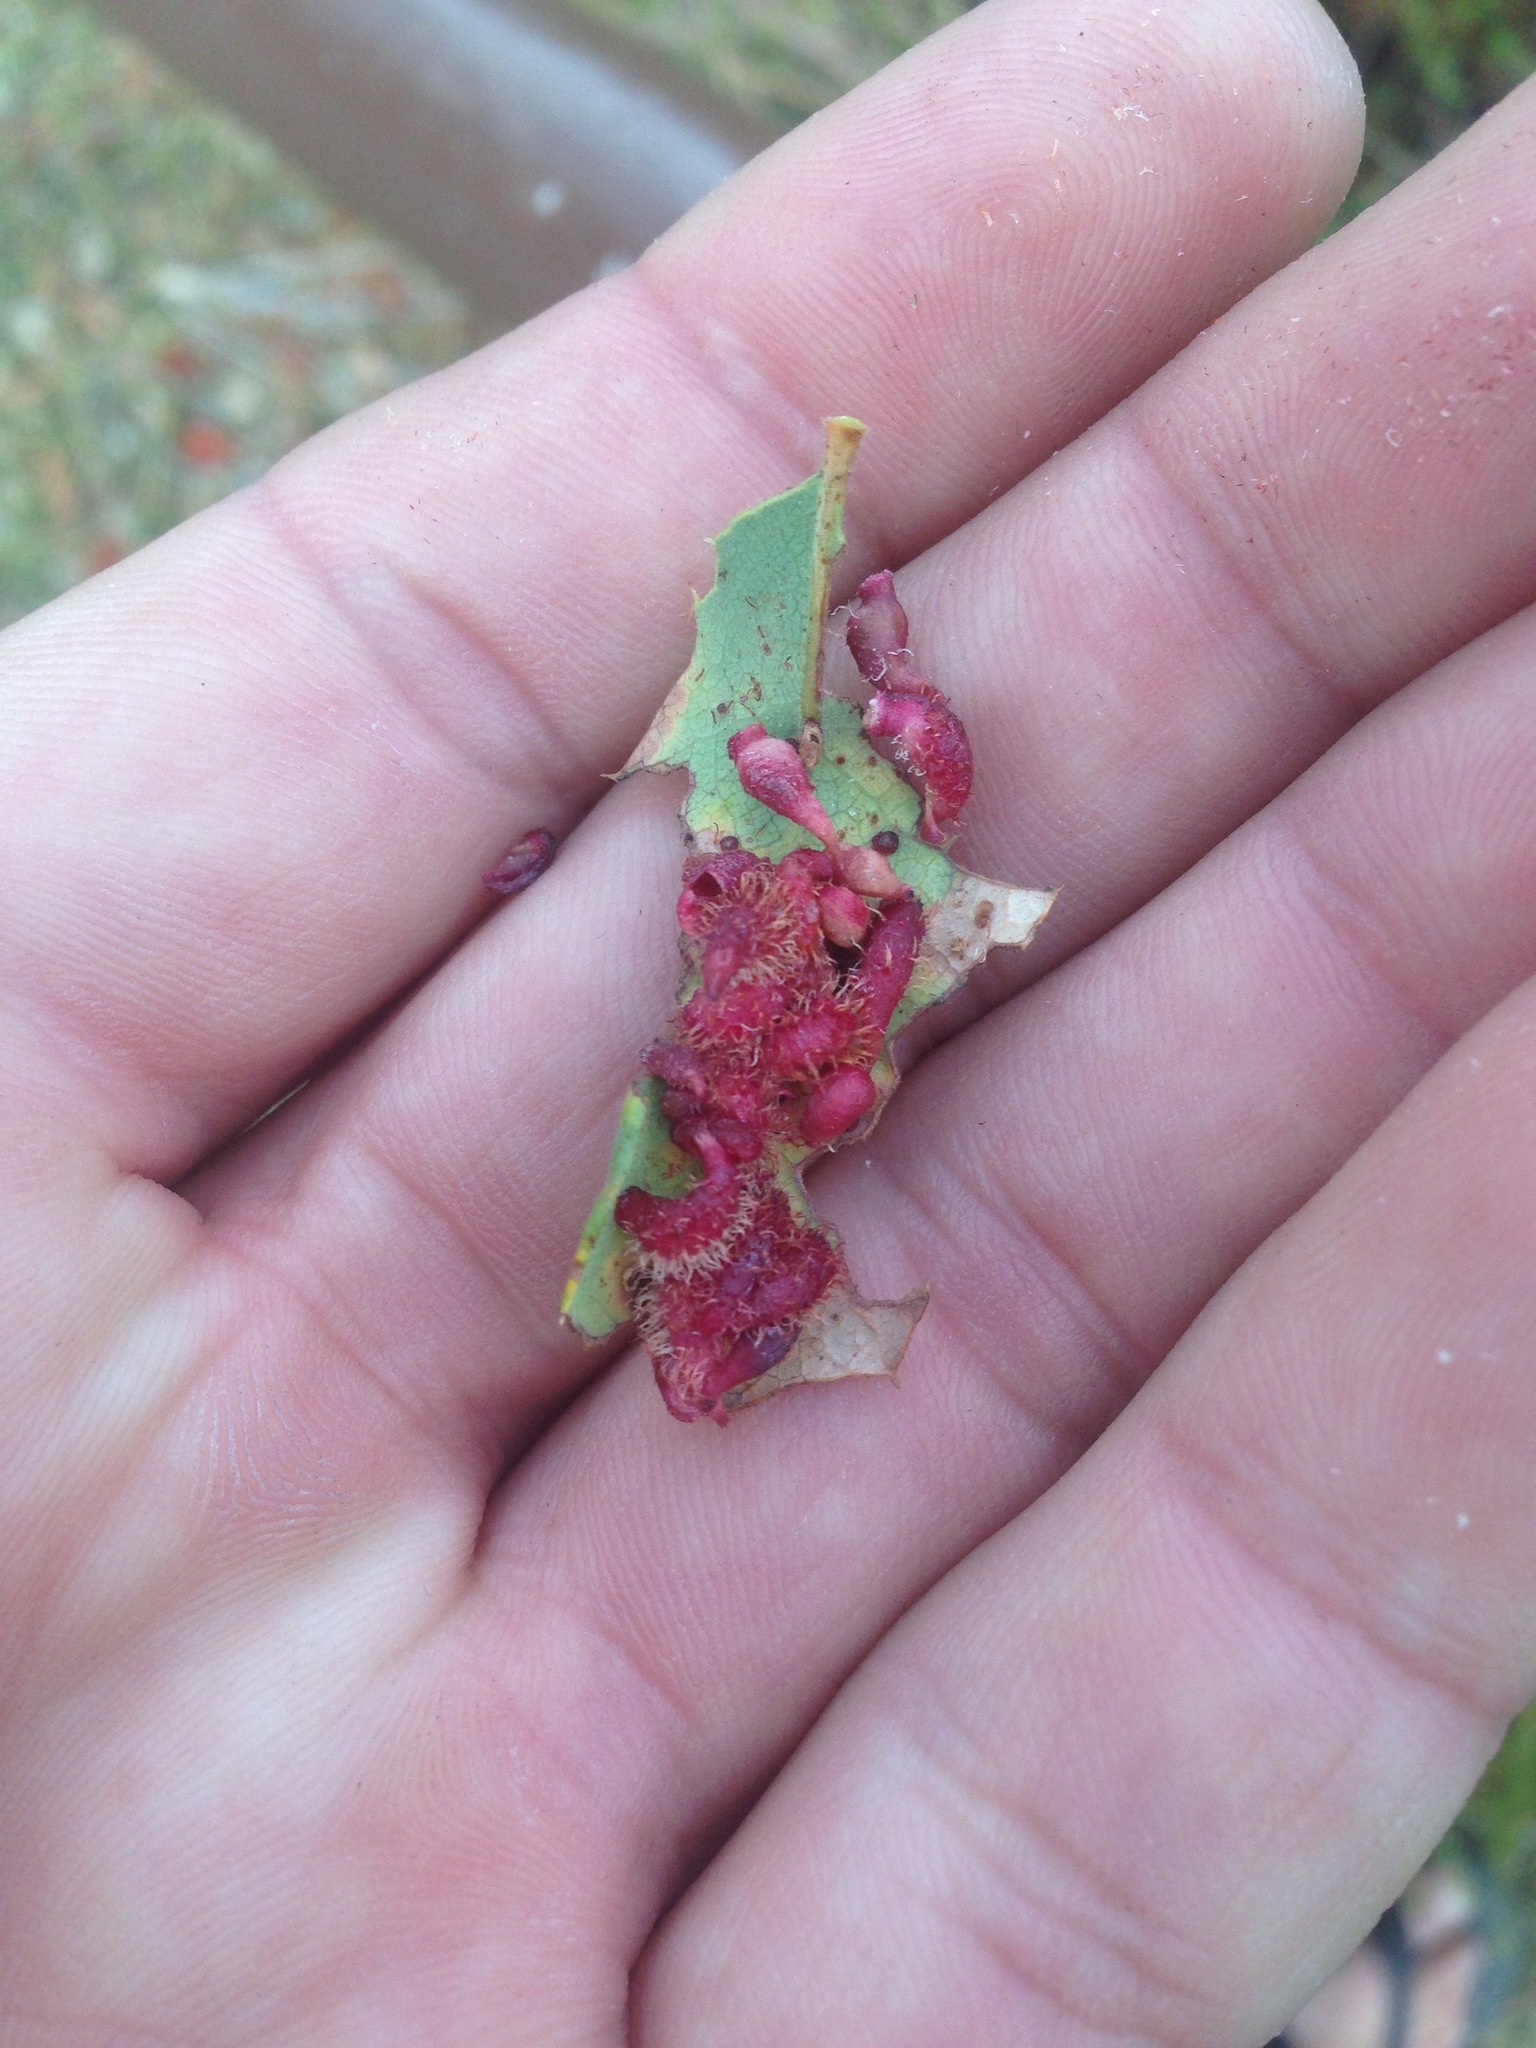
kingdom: Animalia
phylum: Arthropoda
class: Insecta
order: Hymenoptera
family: Cynipidae
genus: Andricus
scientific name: Andricus
